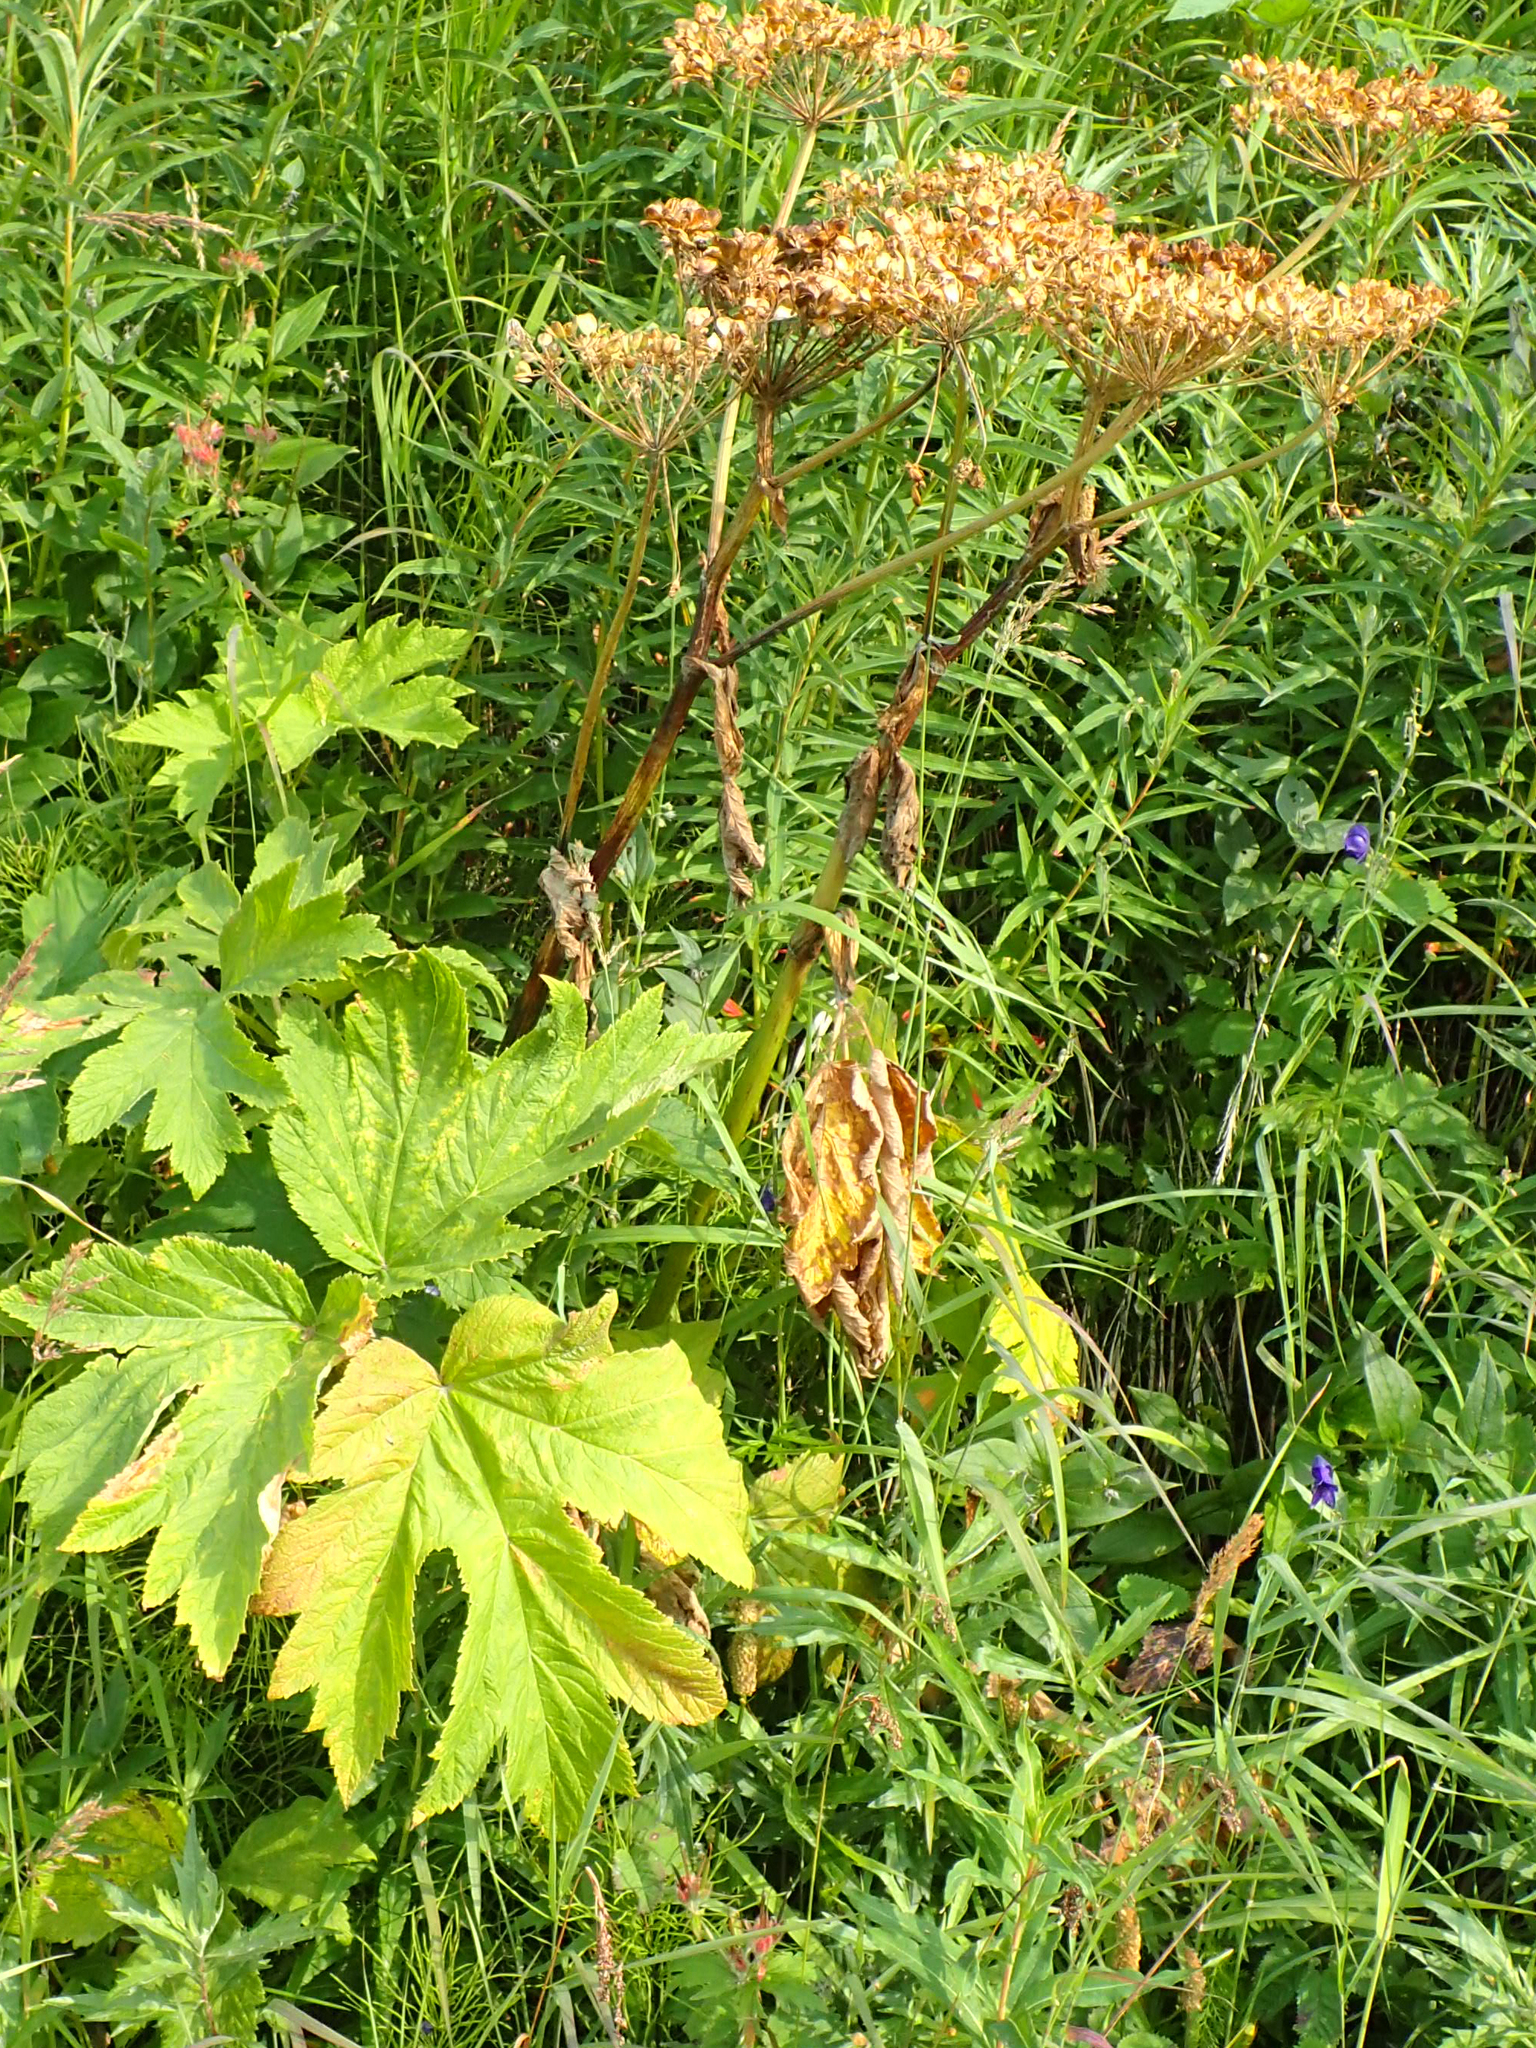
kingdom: Plantae
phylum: Tracheophyta
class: Magnoliopsida
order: Apiales
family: Apiaceae
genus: Heracleum
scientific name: Heracleum maximum
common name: American cow parsnip
